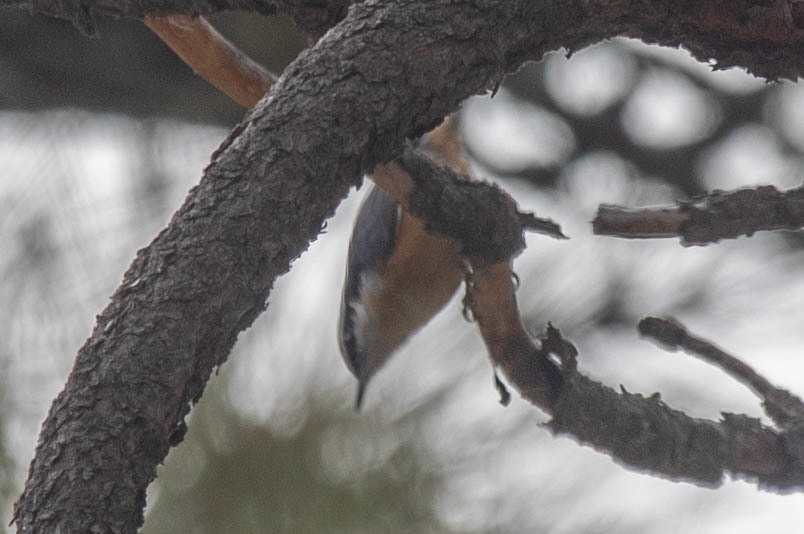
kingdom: Animalia
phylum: Chordata
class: Aves
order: Passeriformes
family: Sittidae
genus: Sitta
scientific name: Sitta canadensis
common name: Red-breasted nuthatch
